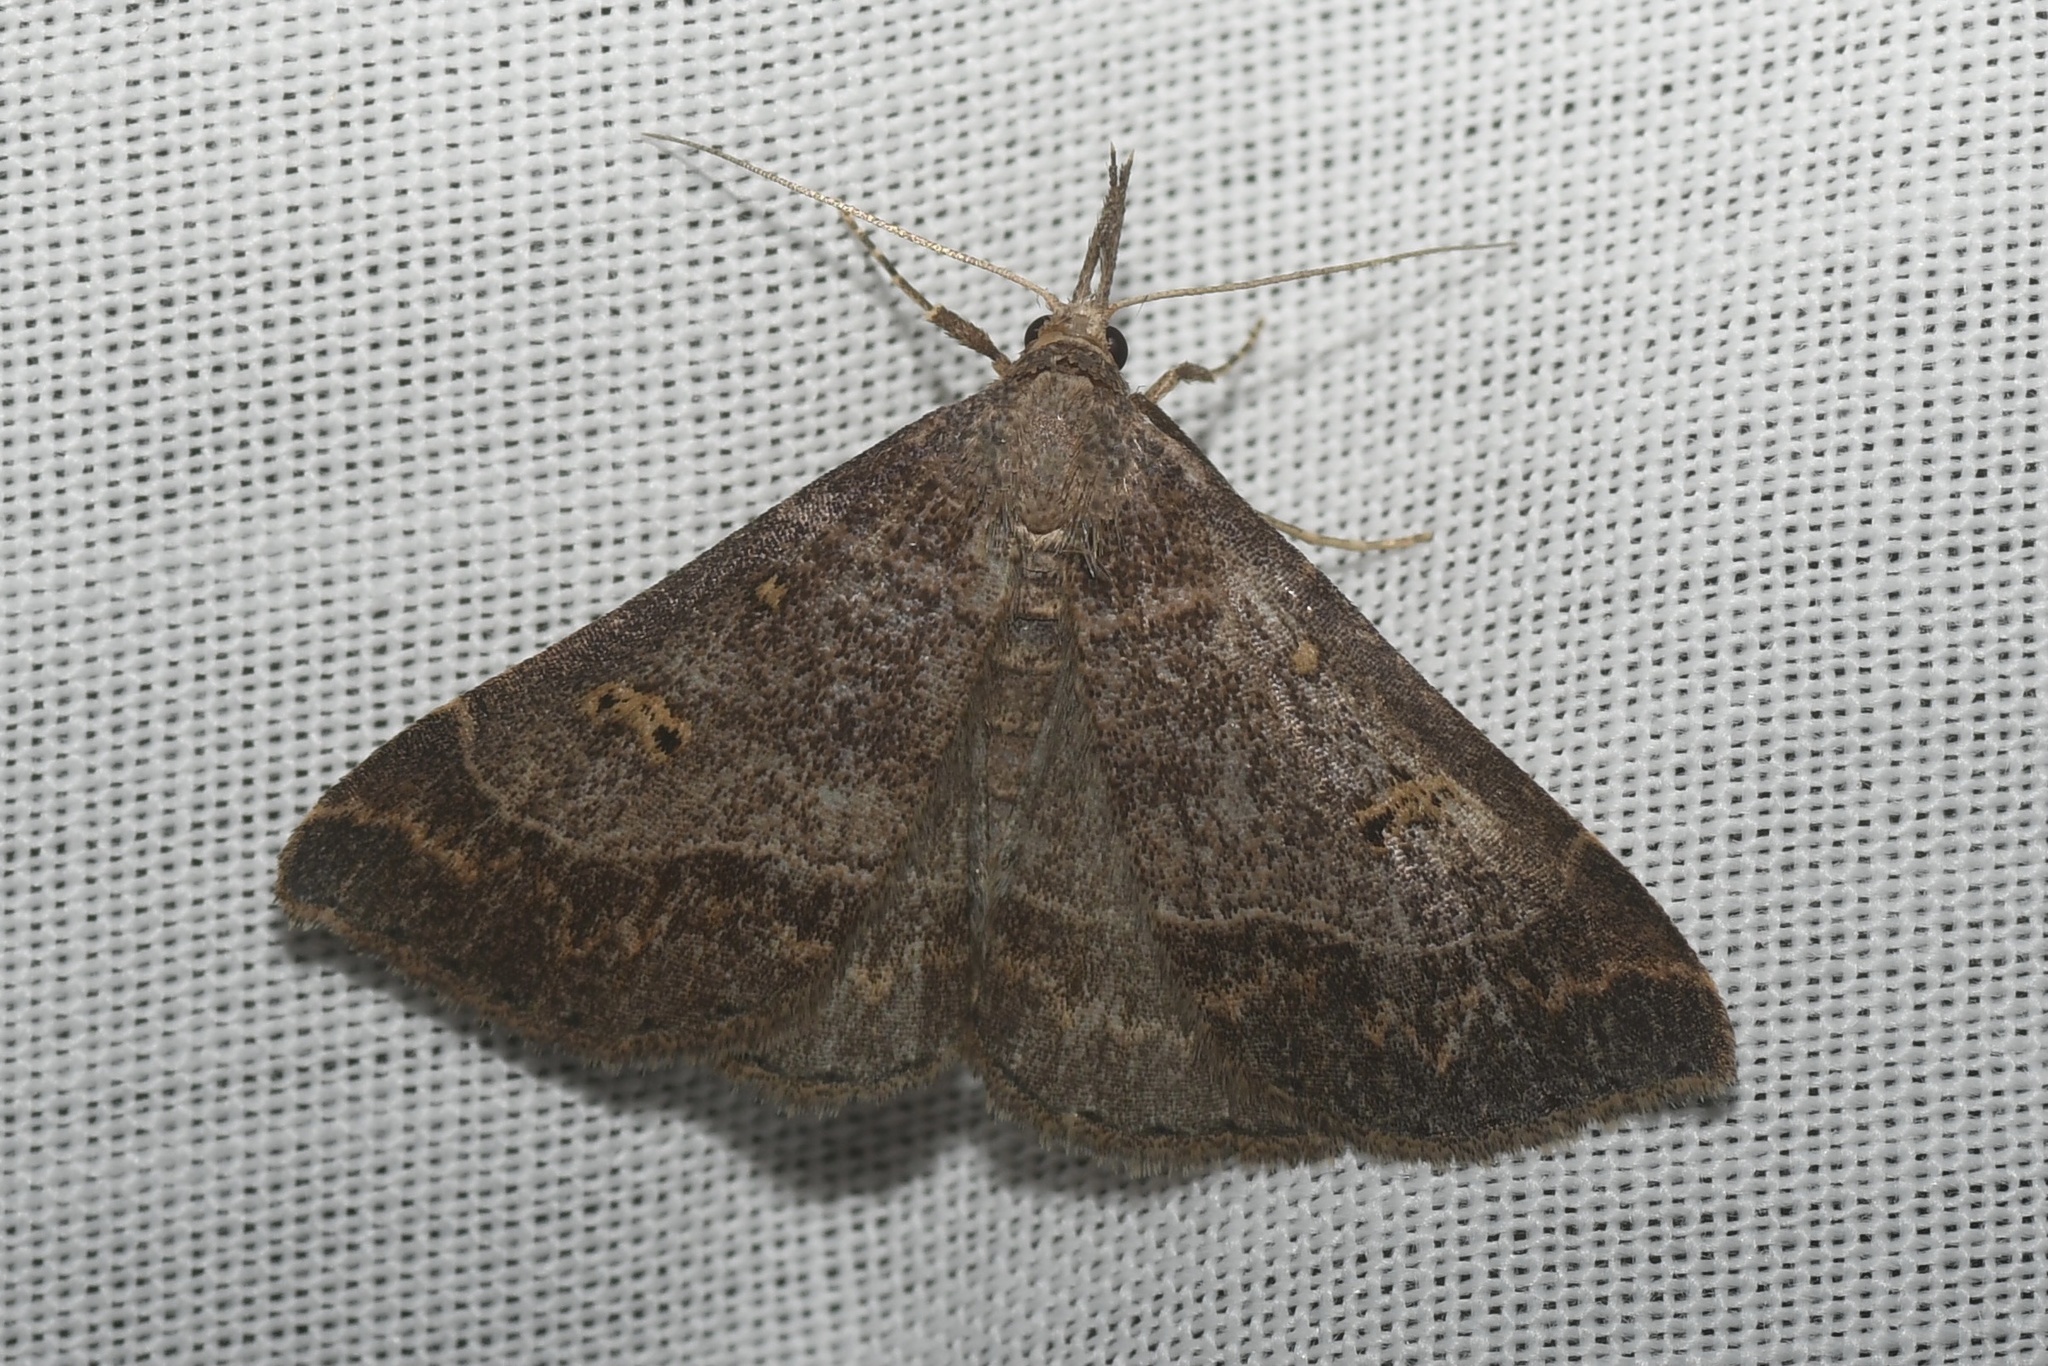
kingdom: Animalia
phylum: Arthropoda
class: Insecta
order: Lepidoptera
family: Erebidae
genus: Renia
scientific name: Renia flavipunctalis
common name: Yellow-spotted renia moth
